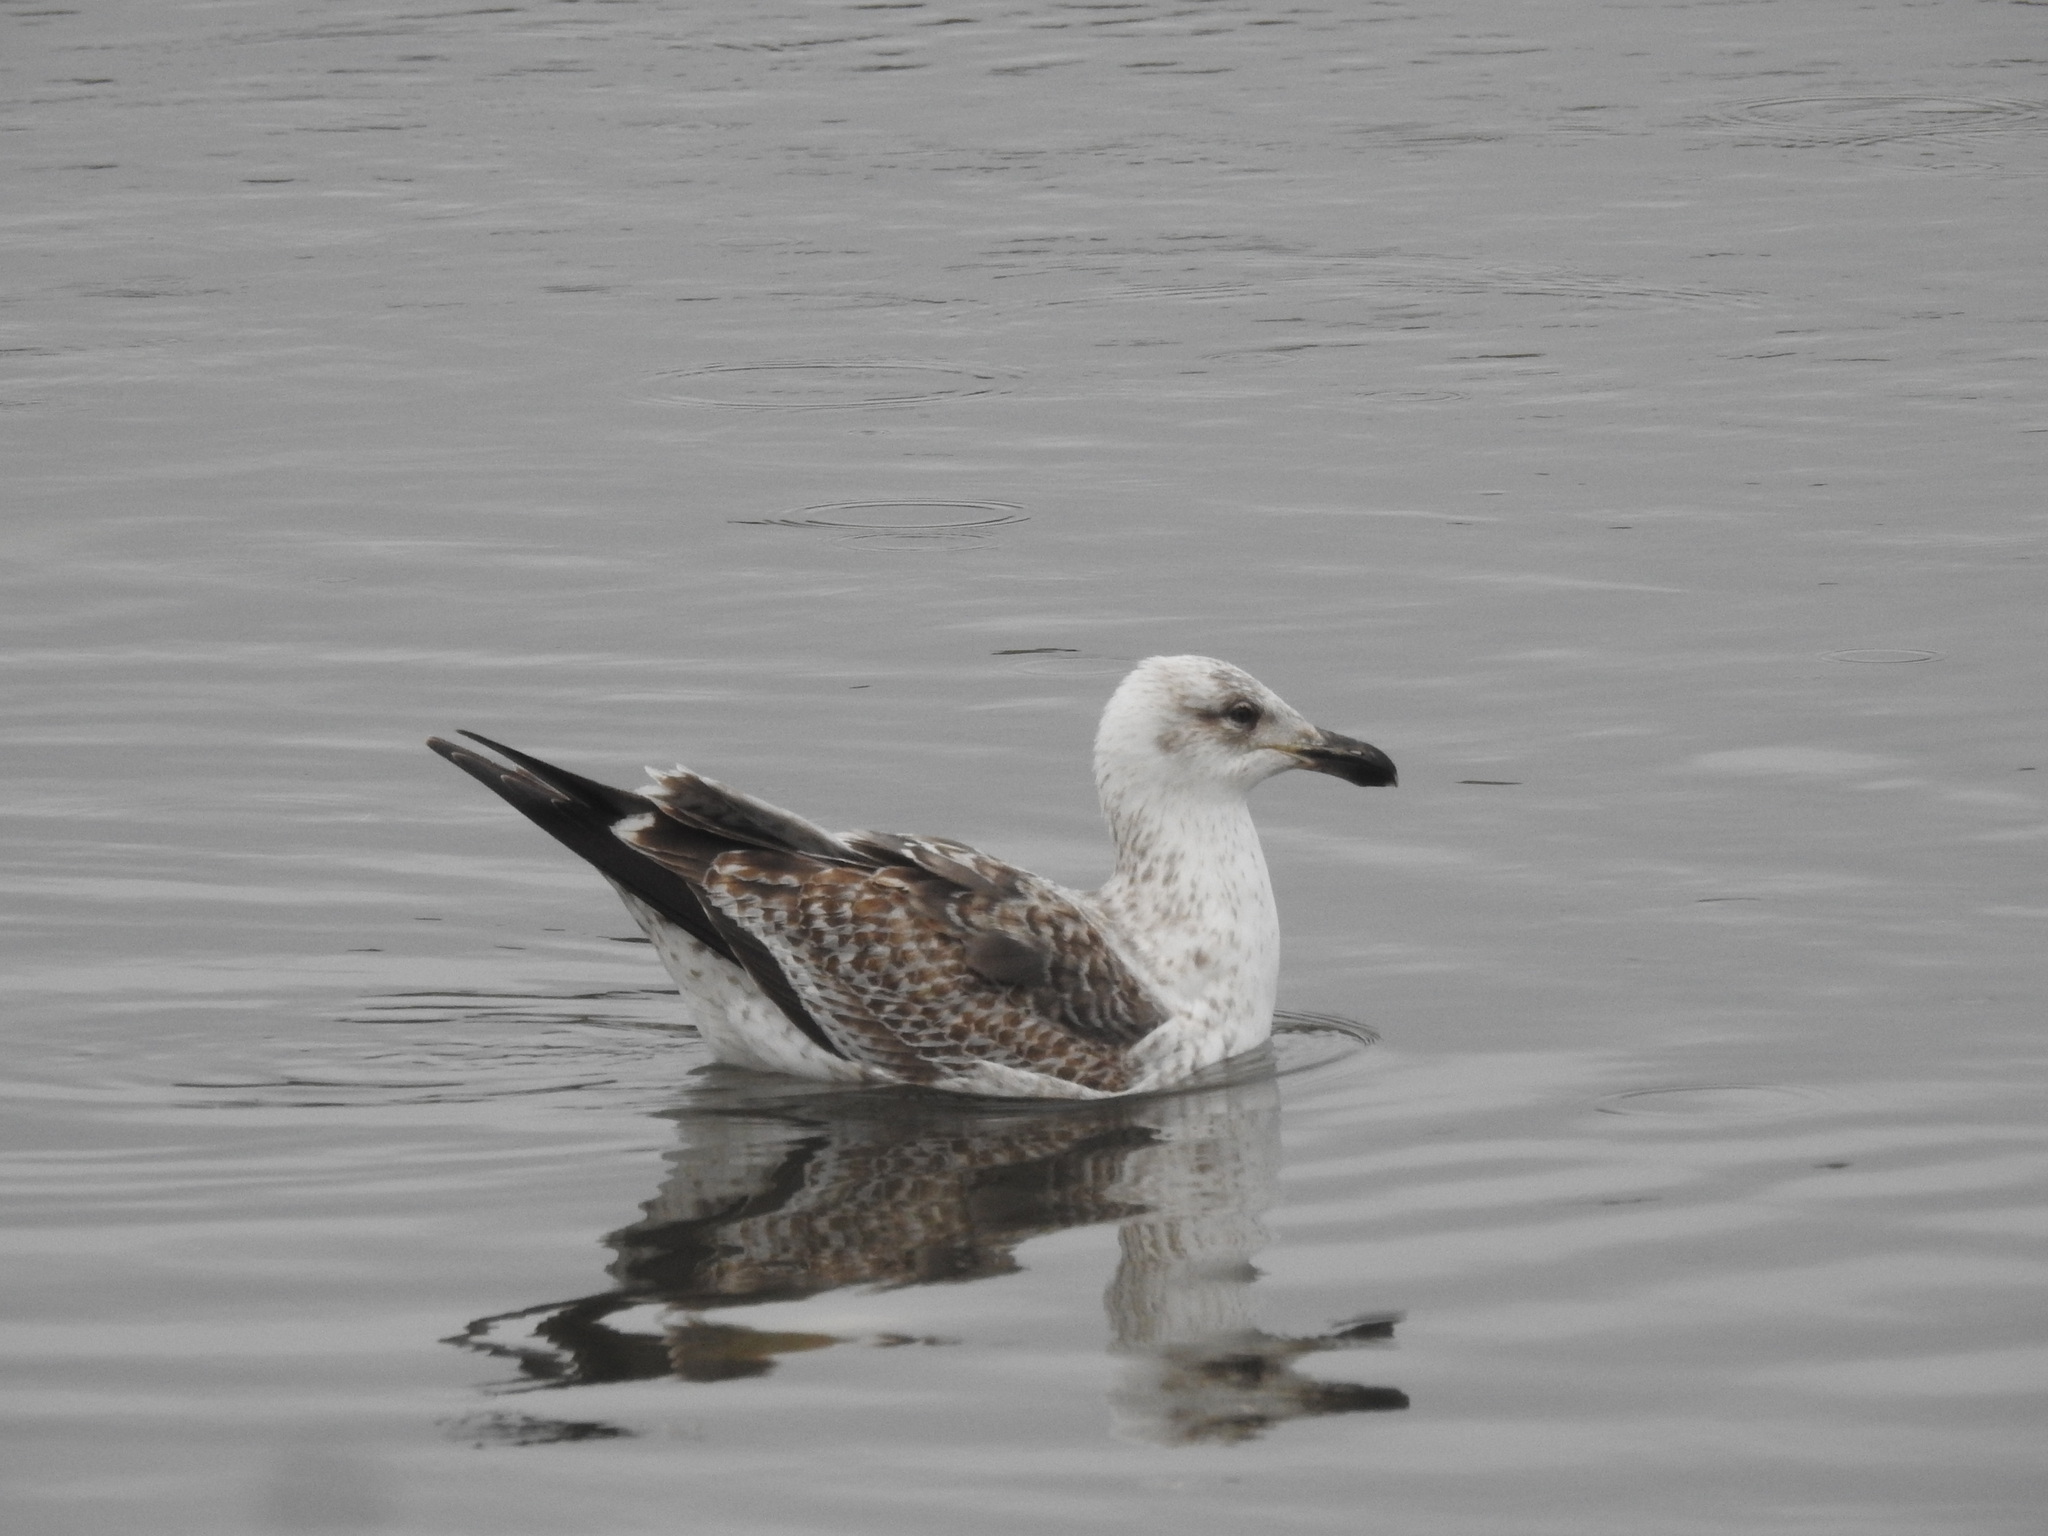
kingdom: Animalia
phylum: Chordata
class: Aves
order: Charadriiformes
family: Laridae
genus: Larus
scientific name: Larus dominicanus
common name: Kelp gull
